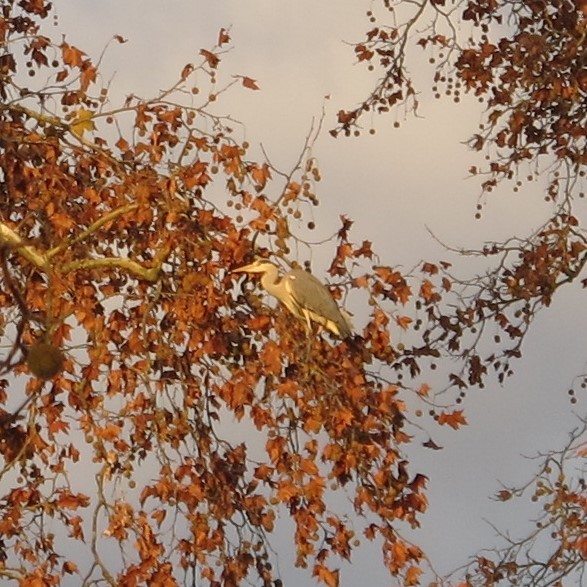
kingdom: Animalia
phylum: Chordata
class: Aves
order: Pelecaniformes
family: Ardeidae
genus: Ardea
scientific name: Ardea cinerea
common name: Grey heron
